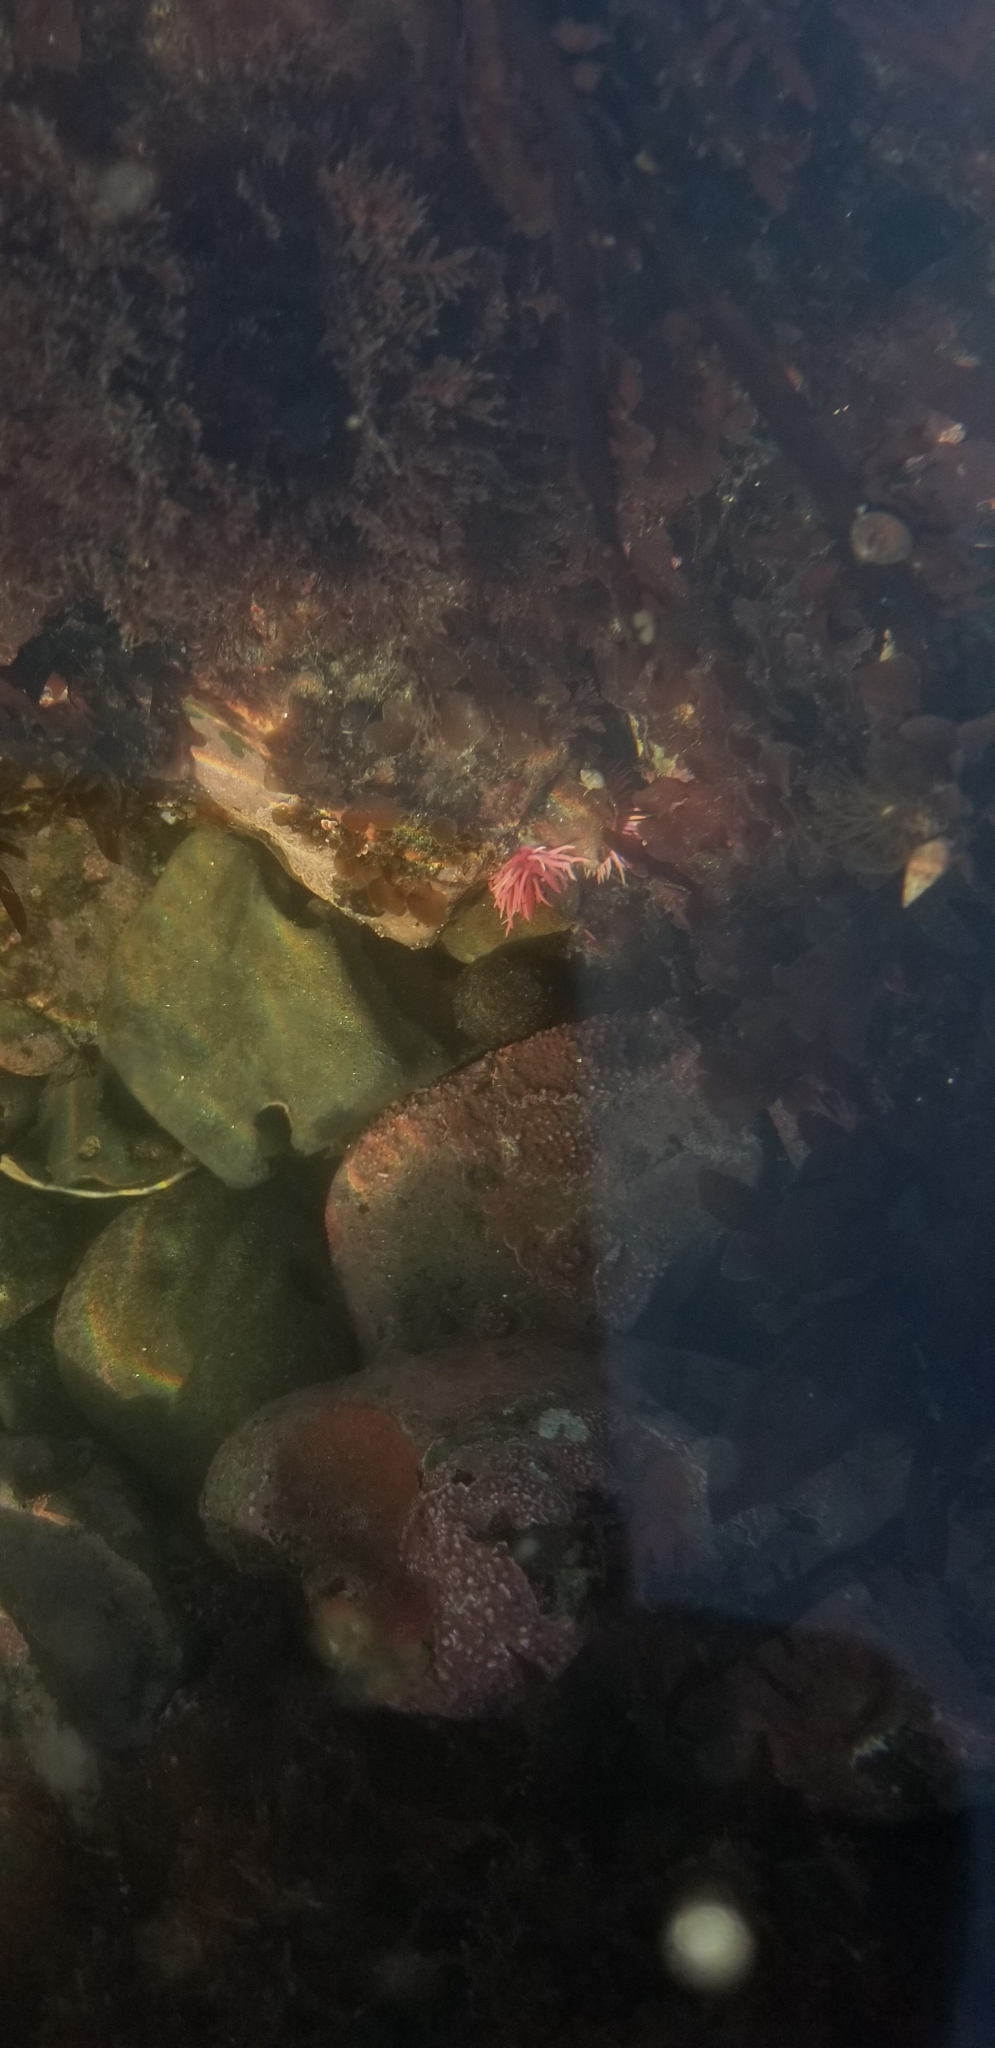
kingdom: Animalia
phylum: Mollusca
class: Gastropoda
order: Nudibranchia
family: Goniodorididae
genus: Okenia
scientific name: Okenia
